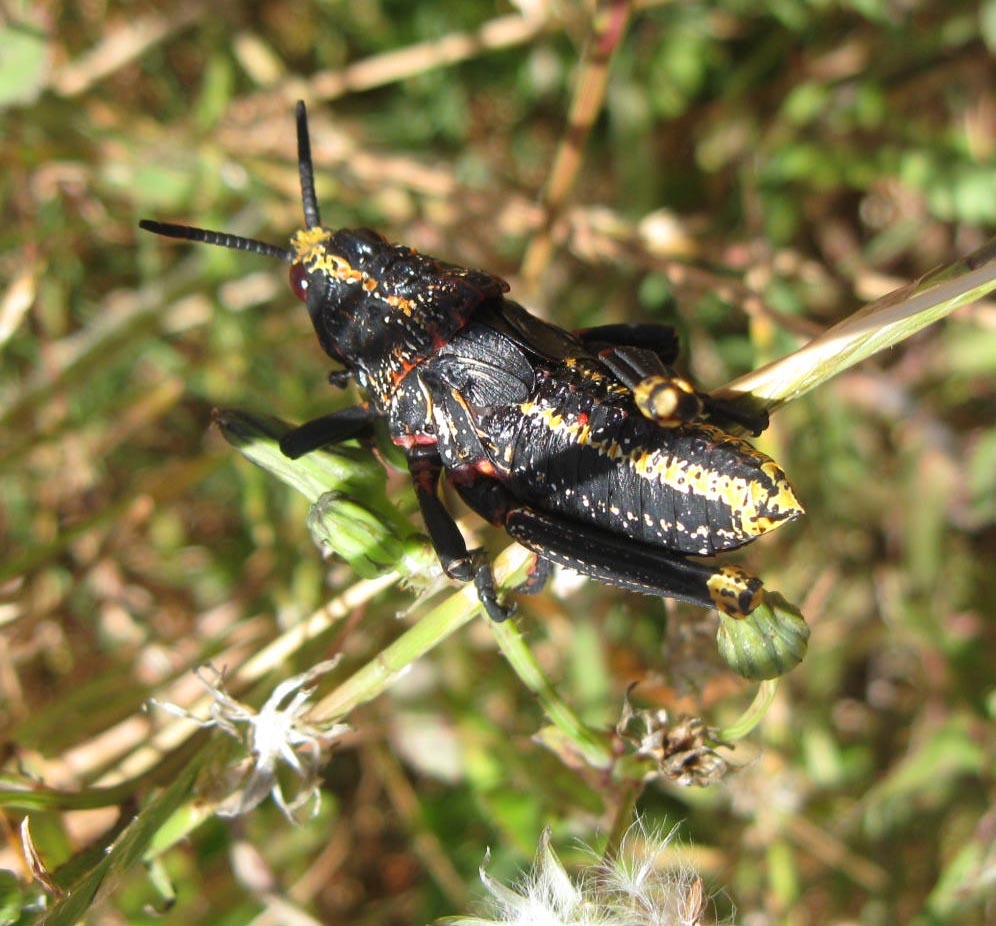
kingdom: Animalia
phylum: Arthropoda
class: Insecta
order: Orthoptera
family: Pyrgomorphidae
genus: Dictyophorus
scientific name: Dictyophorus spumans
